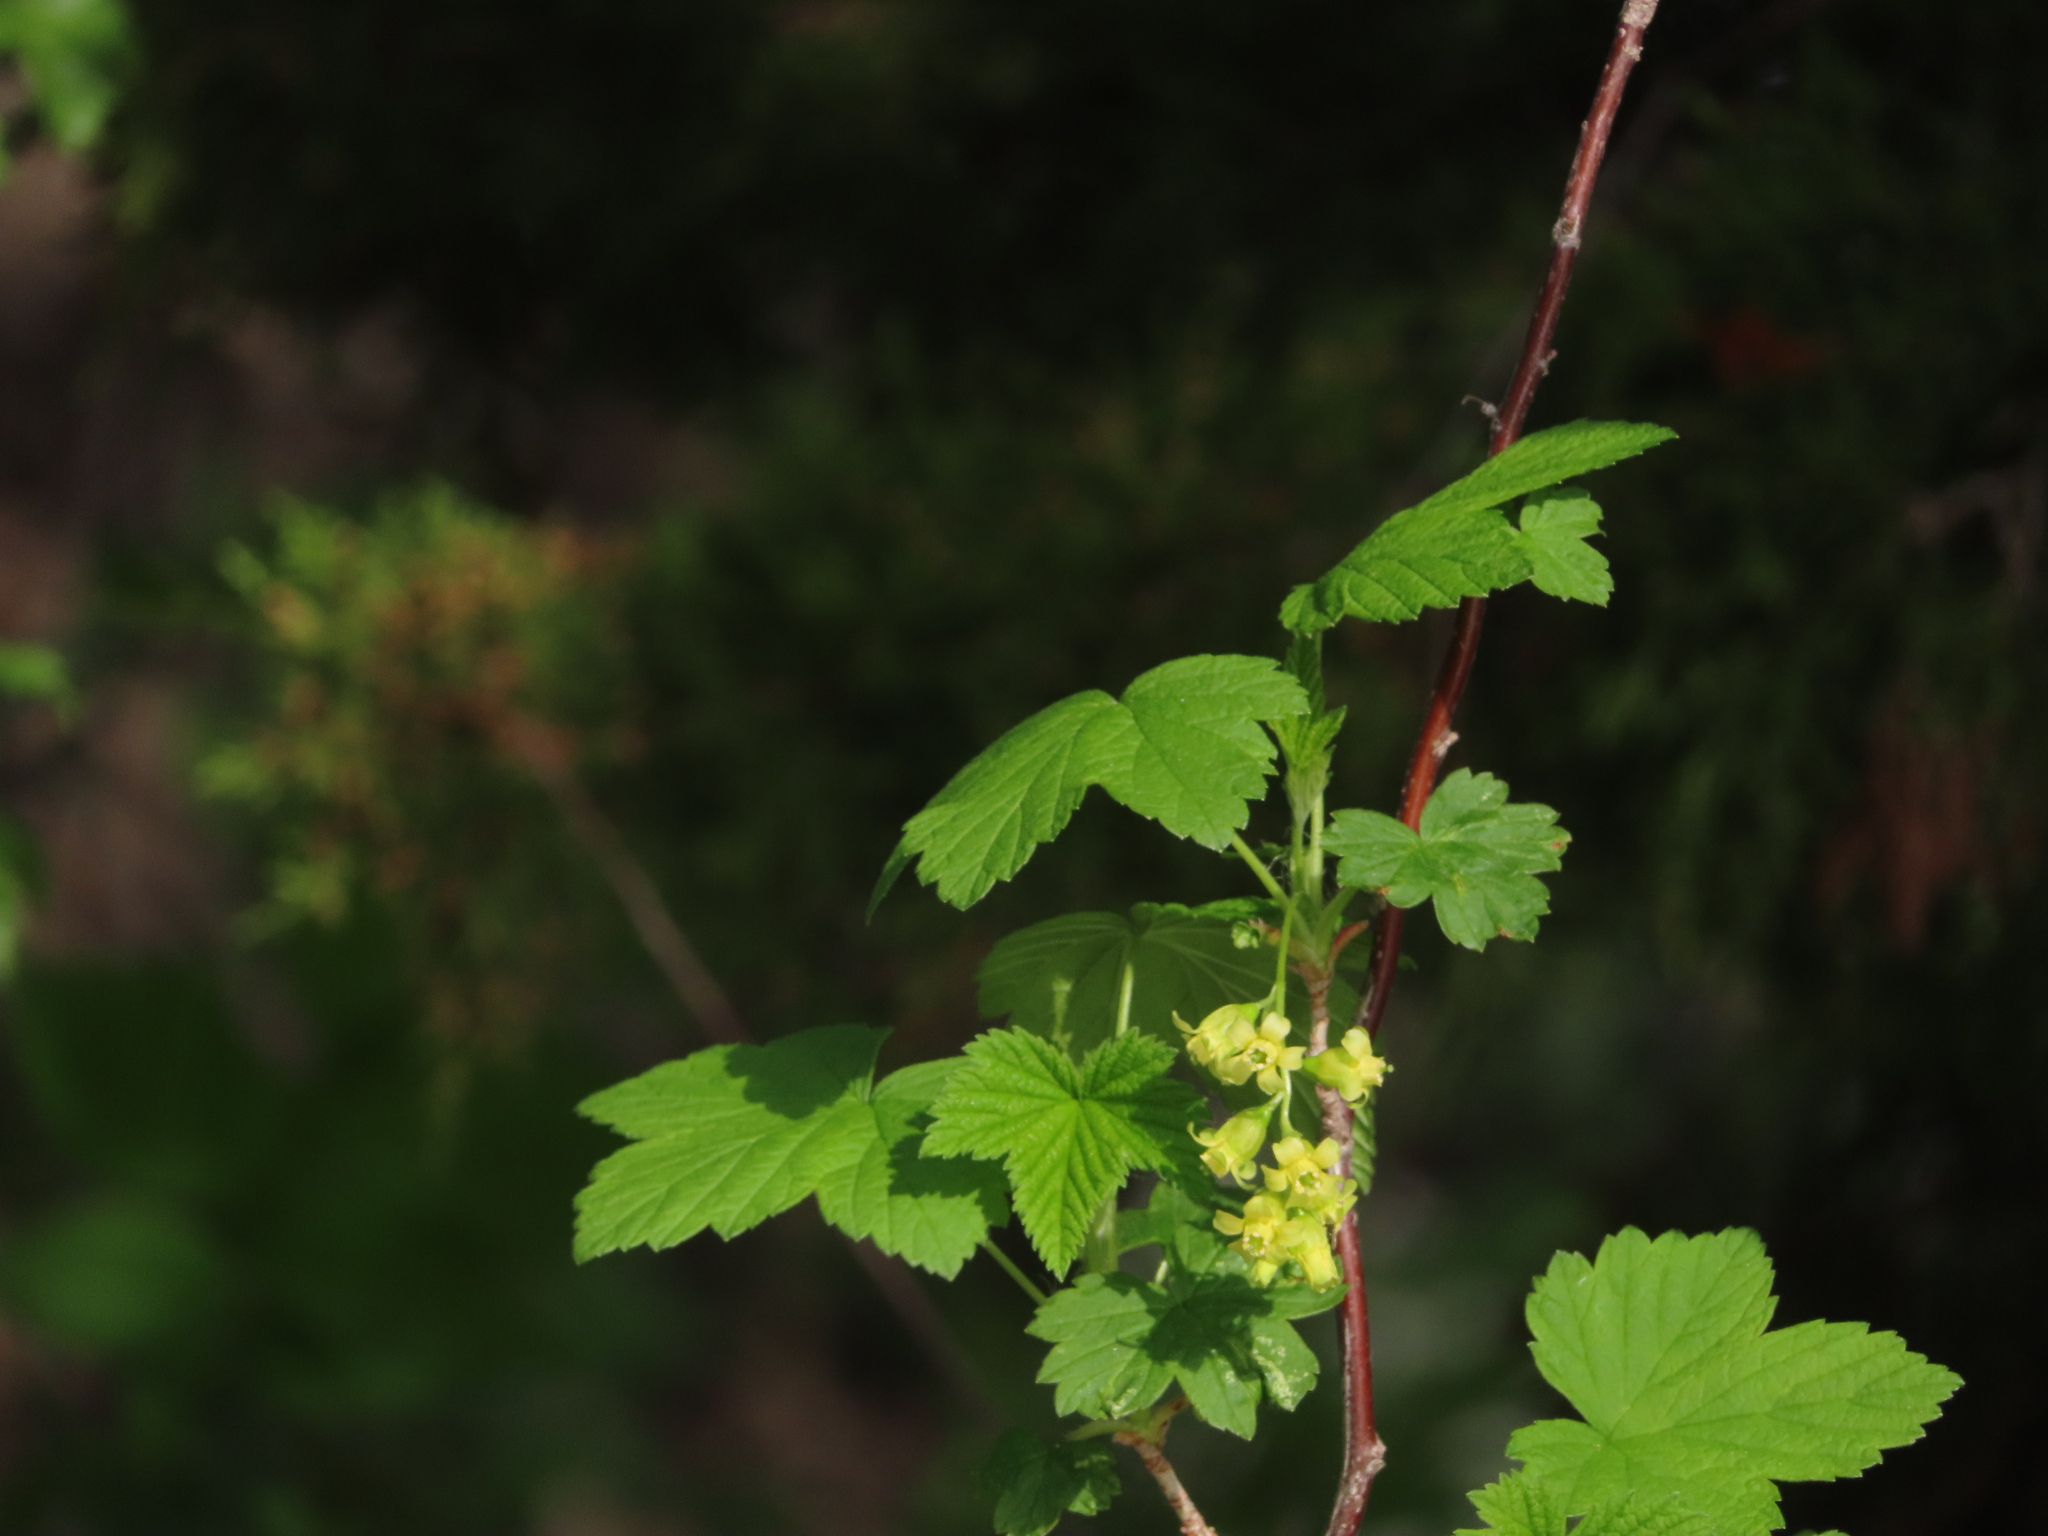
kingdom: Plantae
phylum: Tracheophyta
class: Magnoliopsida
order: Saxifragales
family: Grossulariaceae
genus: Ribes
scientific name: Ribes americanum
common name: American black currant
